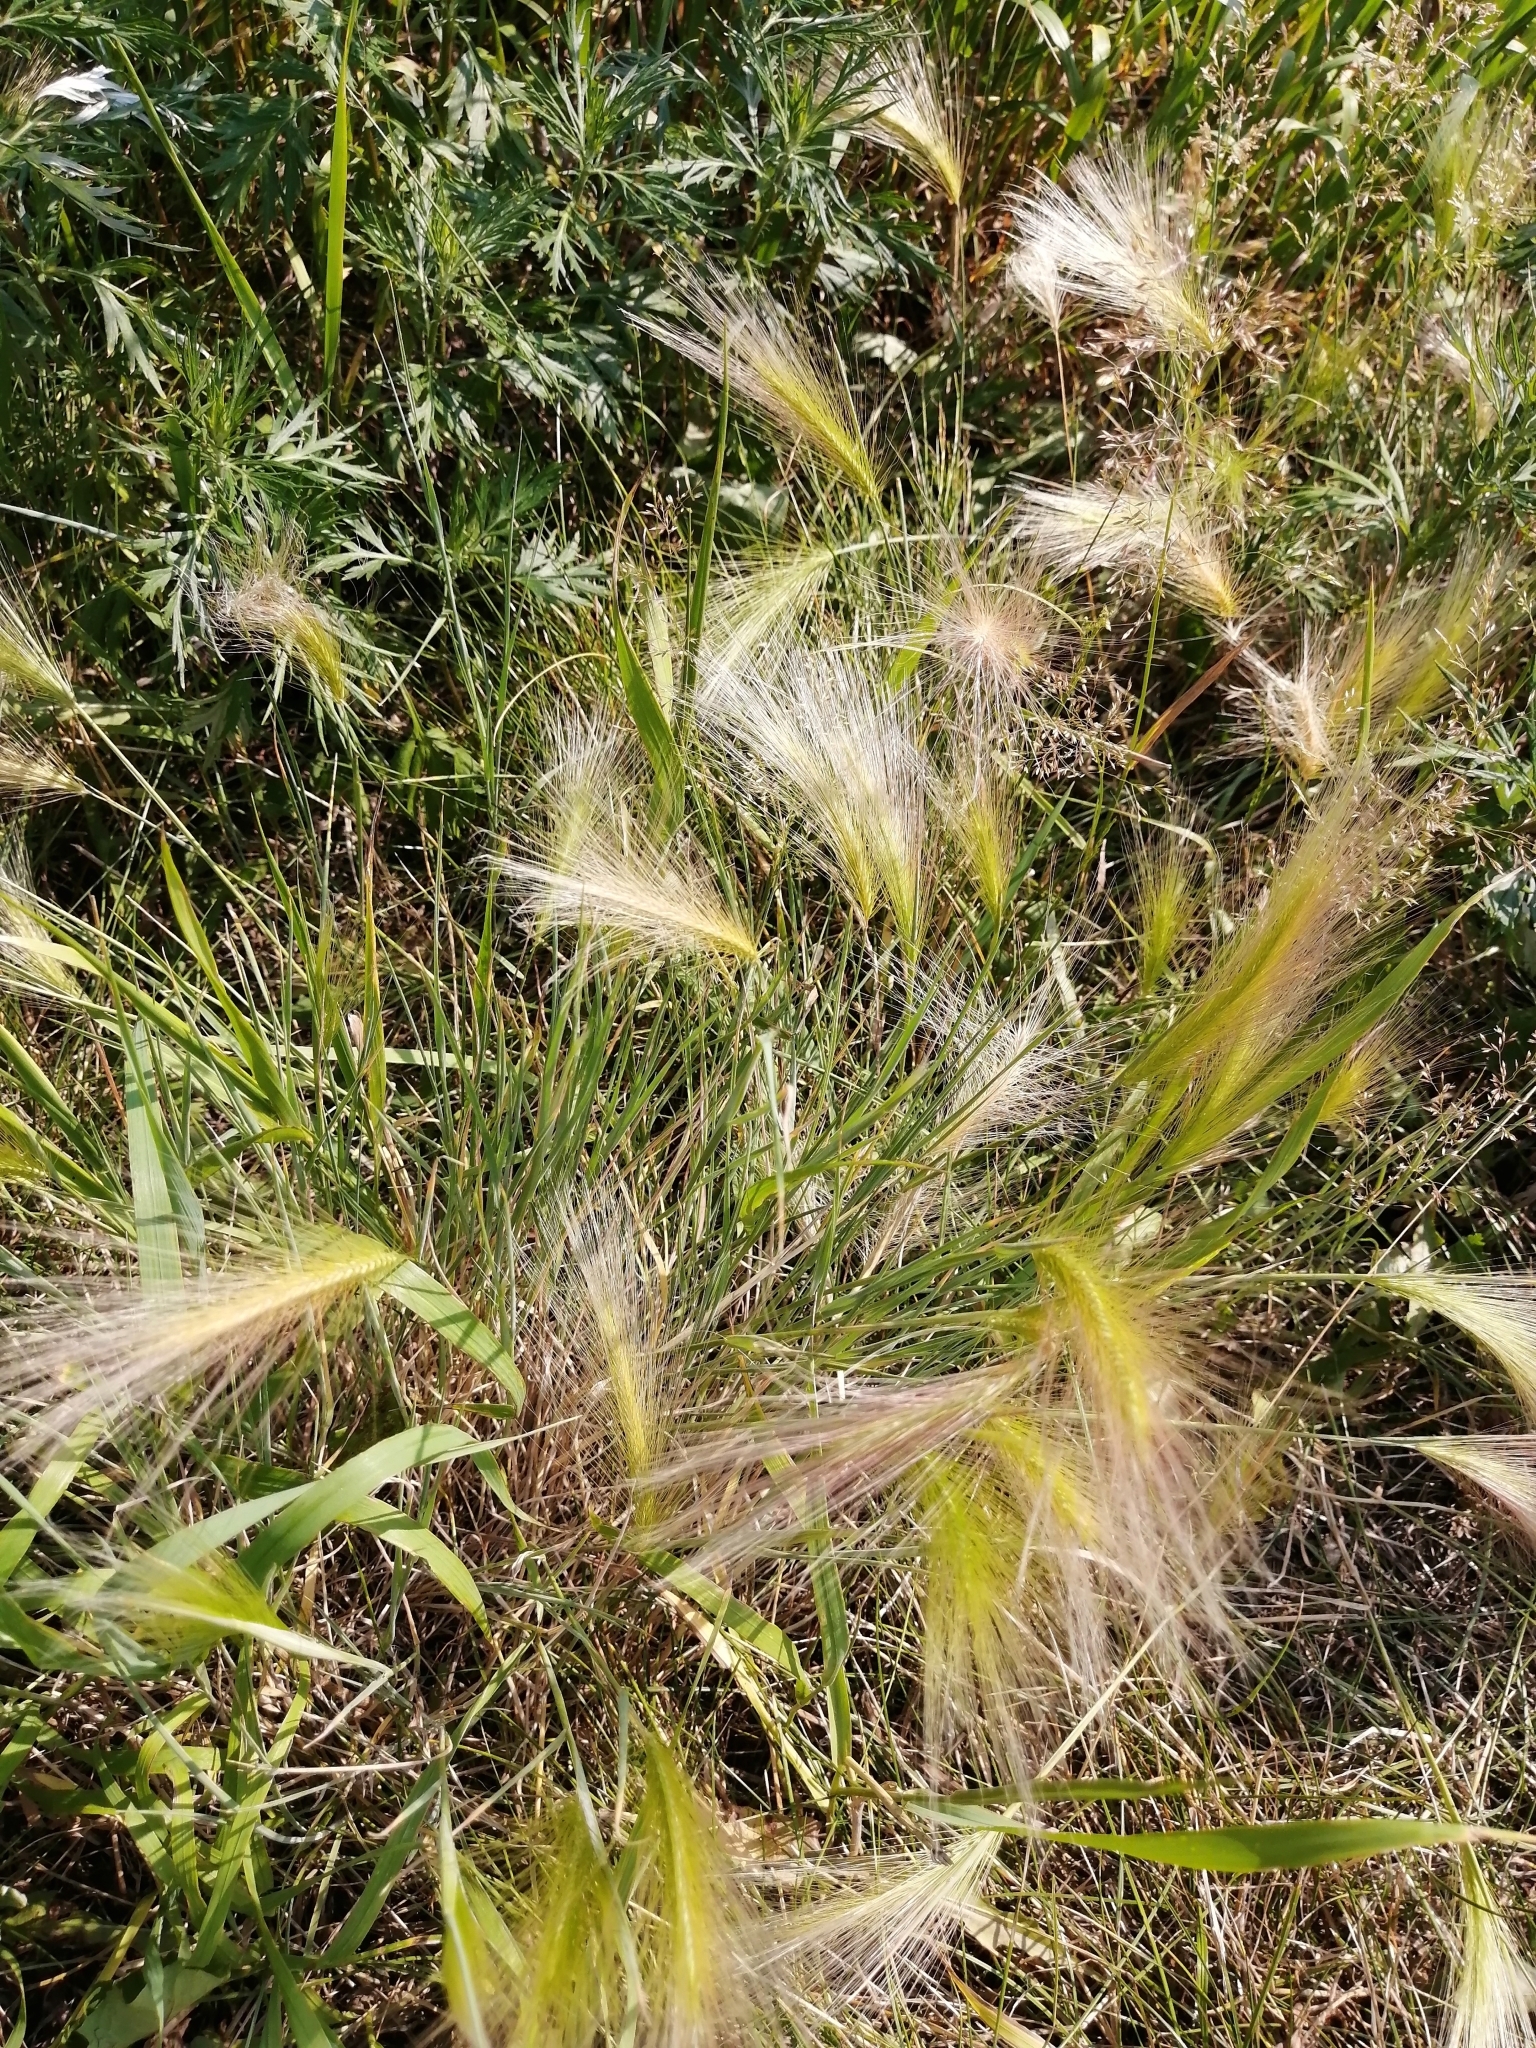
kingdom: Plantae
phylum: Tracheophyta
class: Liliopsida
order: Poales
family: Poaceae
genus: Hordeum
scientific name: Hordeum jubatum
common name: Foxtail barley
